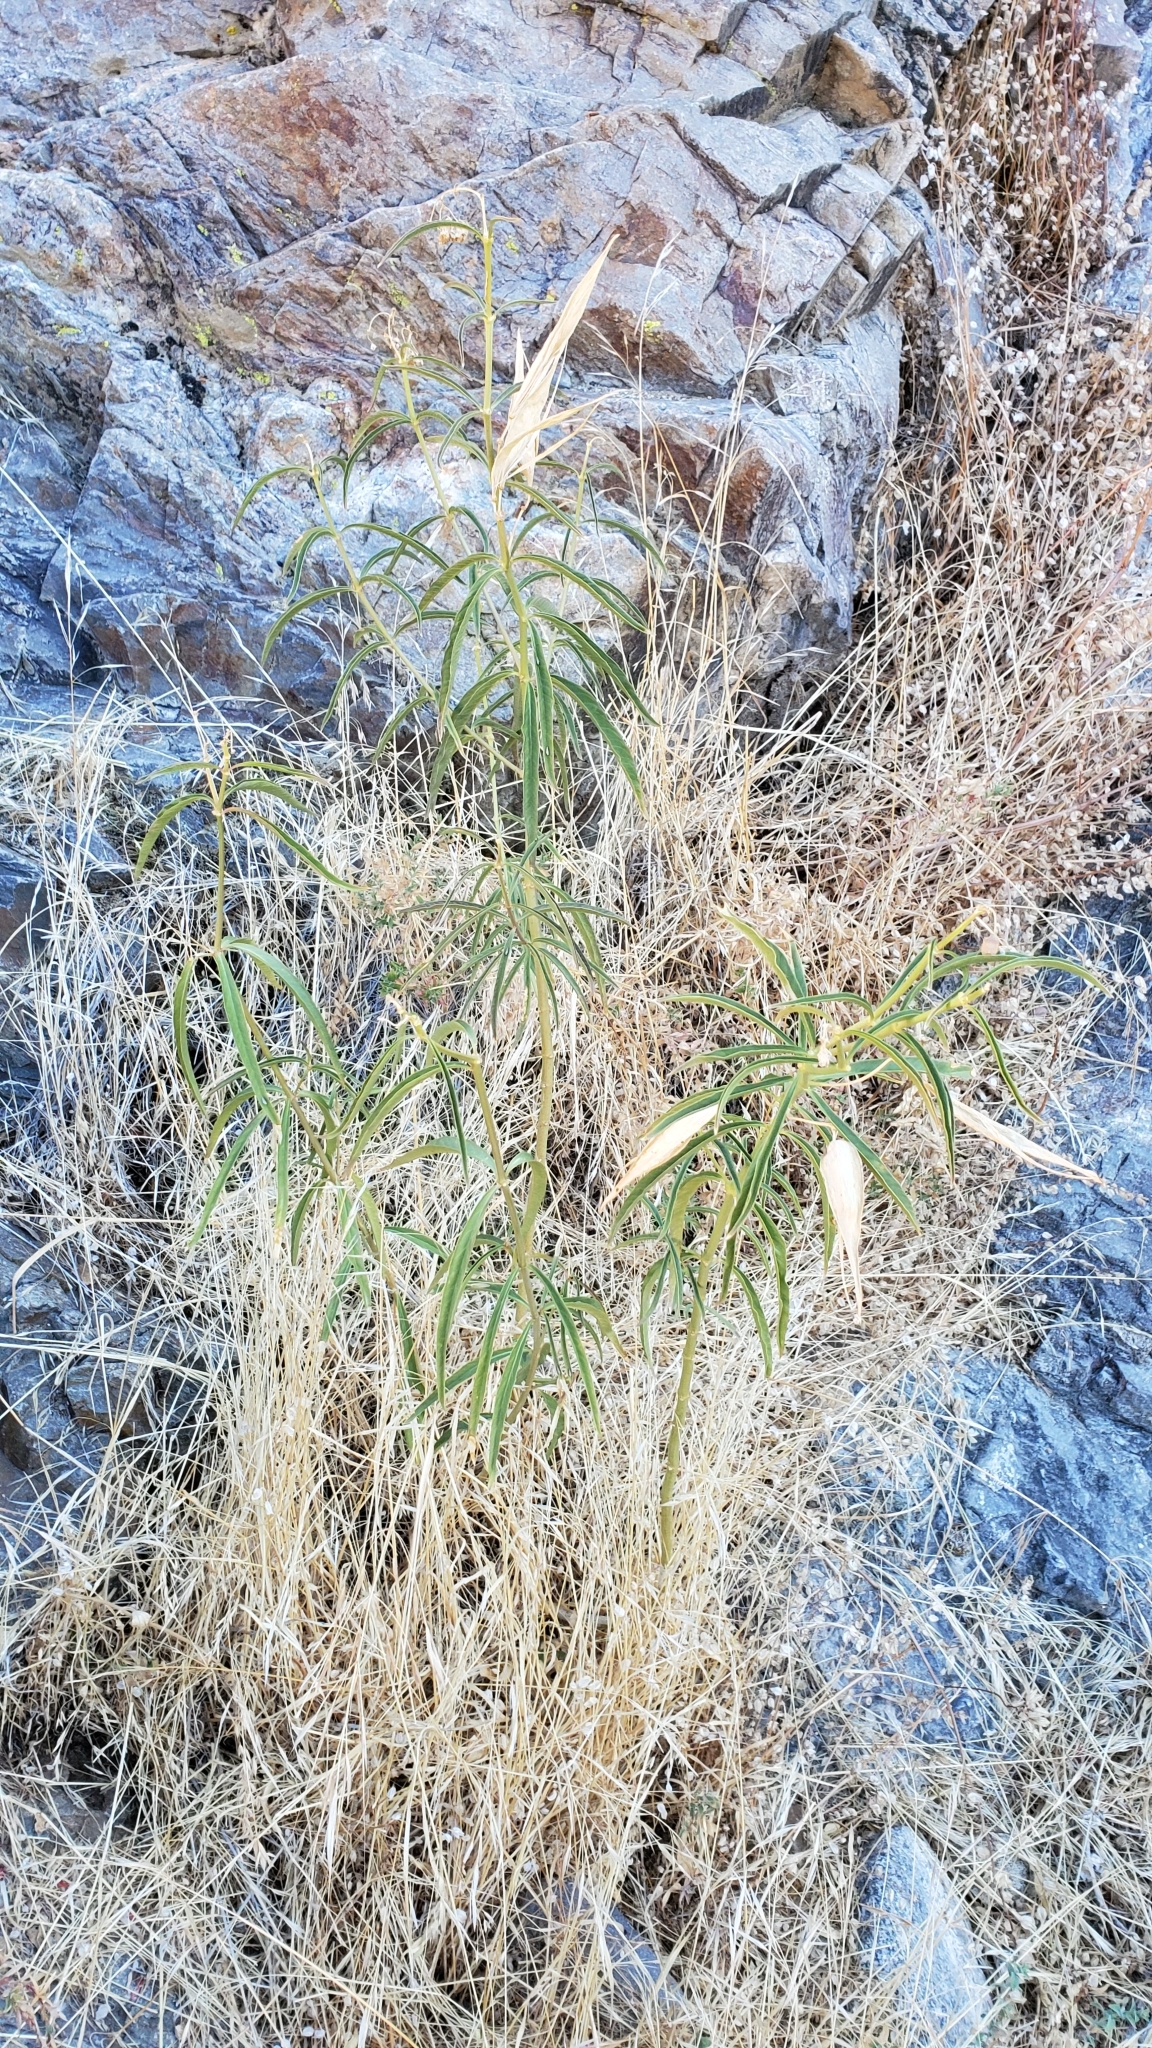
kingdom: Plantae
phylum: Tracheophyta
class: Magnoliopsida
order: Gentianales
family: Apocynaceae
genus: Asclepias
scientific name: Asclepias fascicularis
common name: Mexican milkweed
